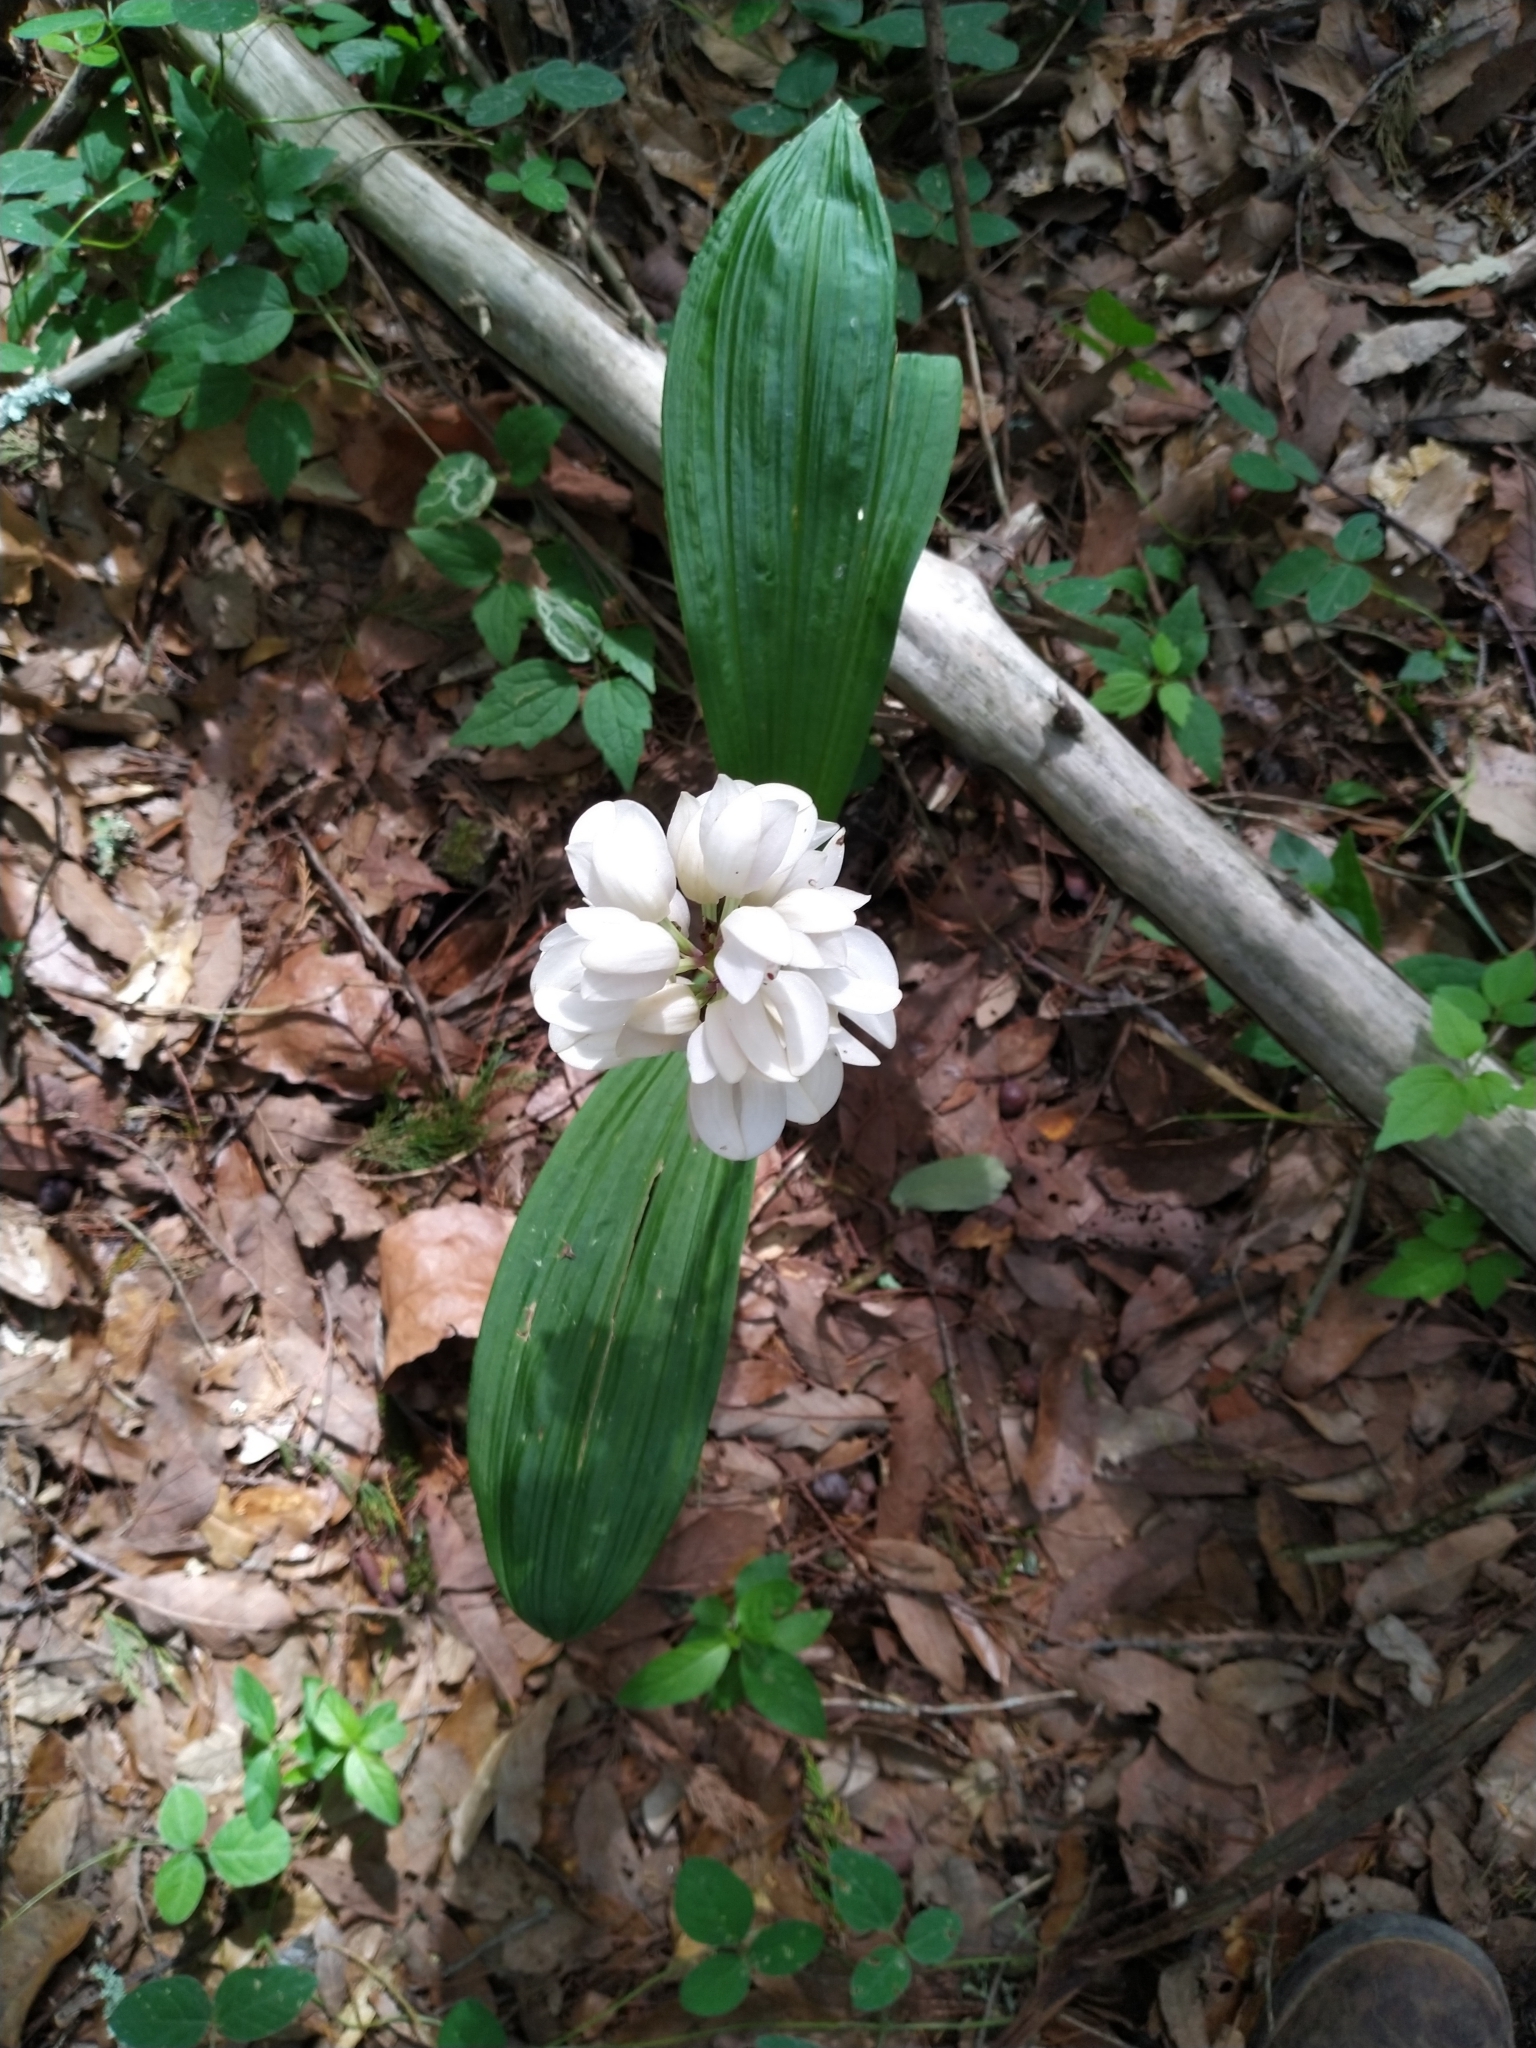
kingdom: Plantae
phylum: Tracheophyta
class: Liliopsida
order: Asparagales
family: Orchidaceae
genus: Govenia
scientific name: Govenia liliacea
